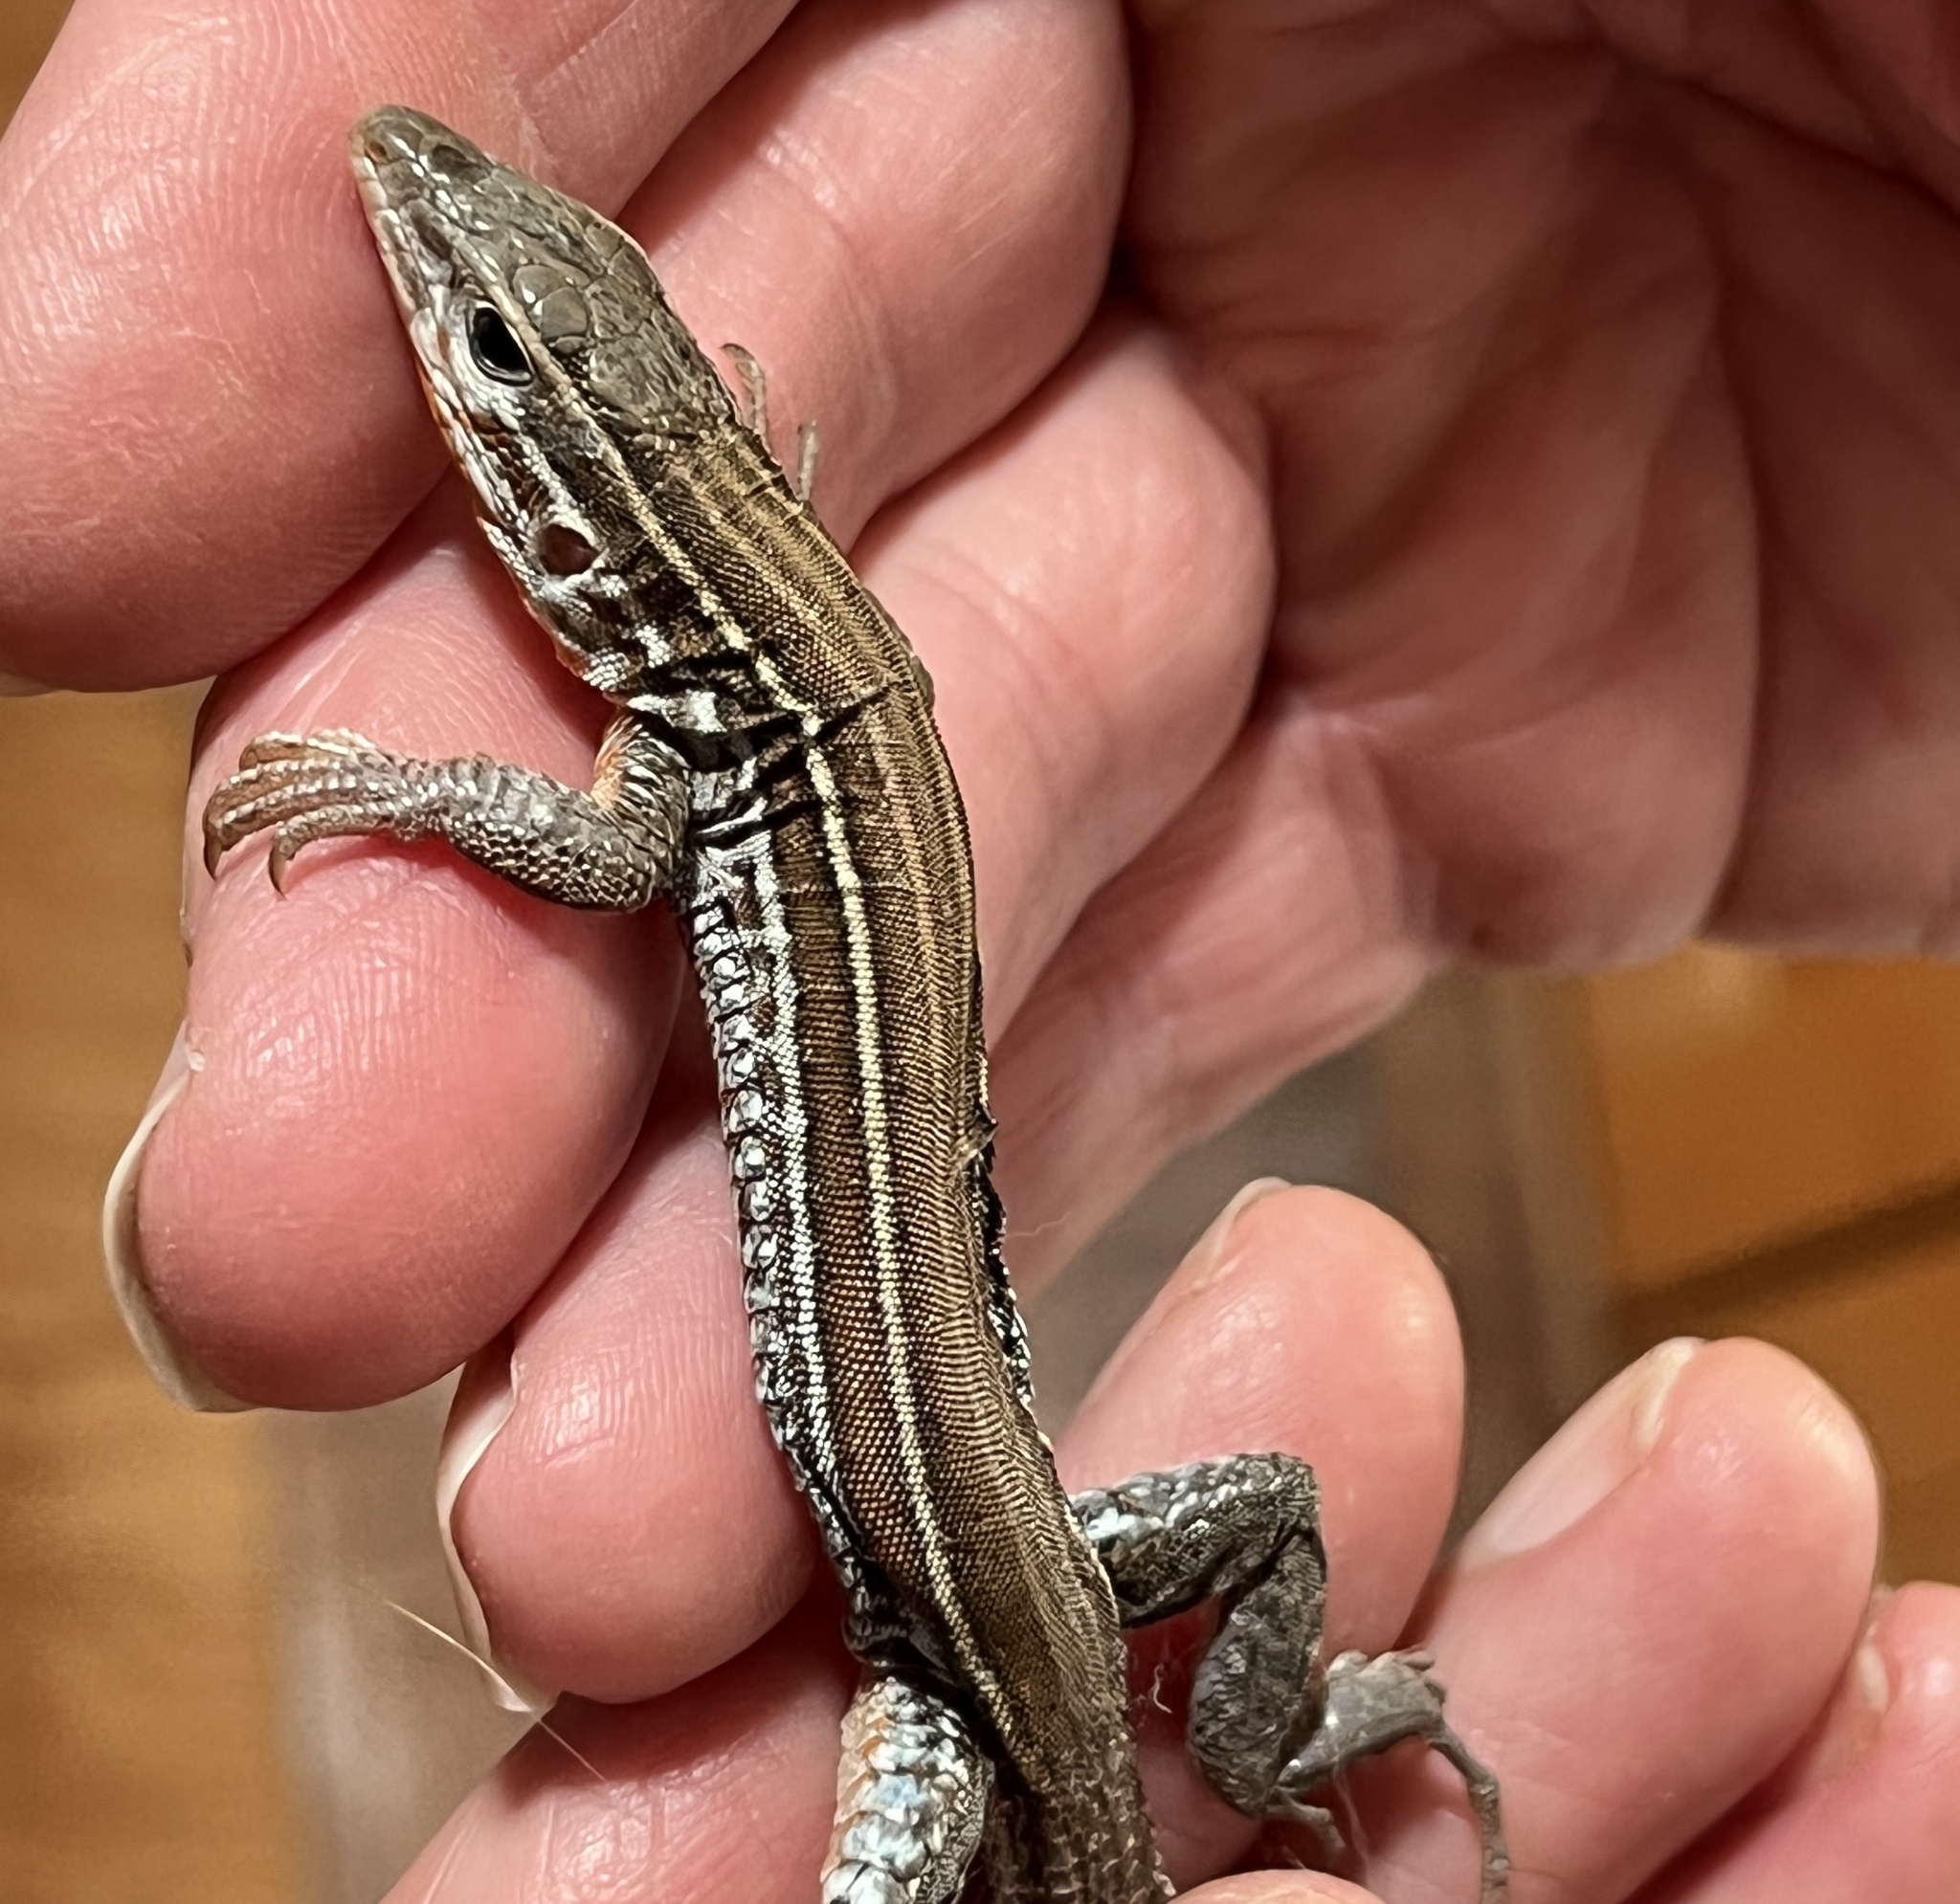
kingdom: Animalia
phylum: Chordata
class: Squamata
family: Teiidae
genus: Aspidoscelis
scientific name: Aspidoscelis hyperythrus
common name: Orange-throated race-runner
